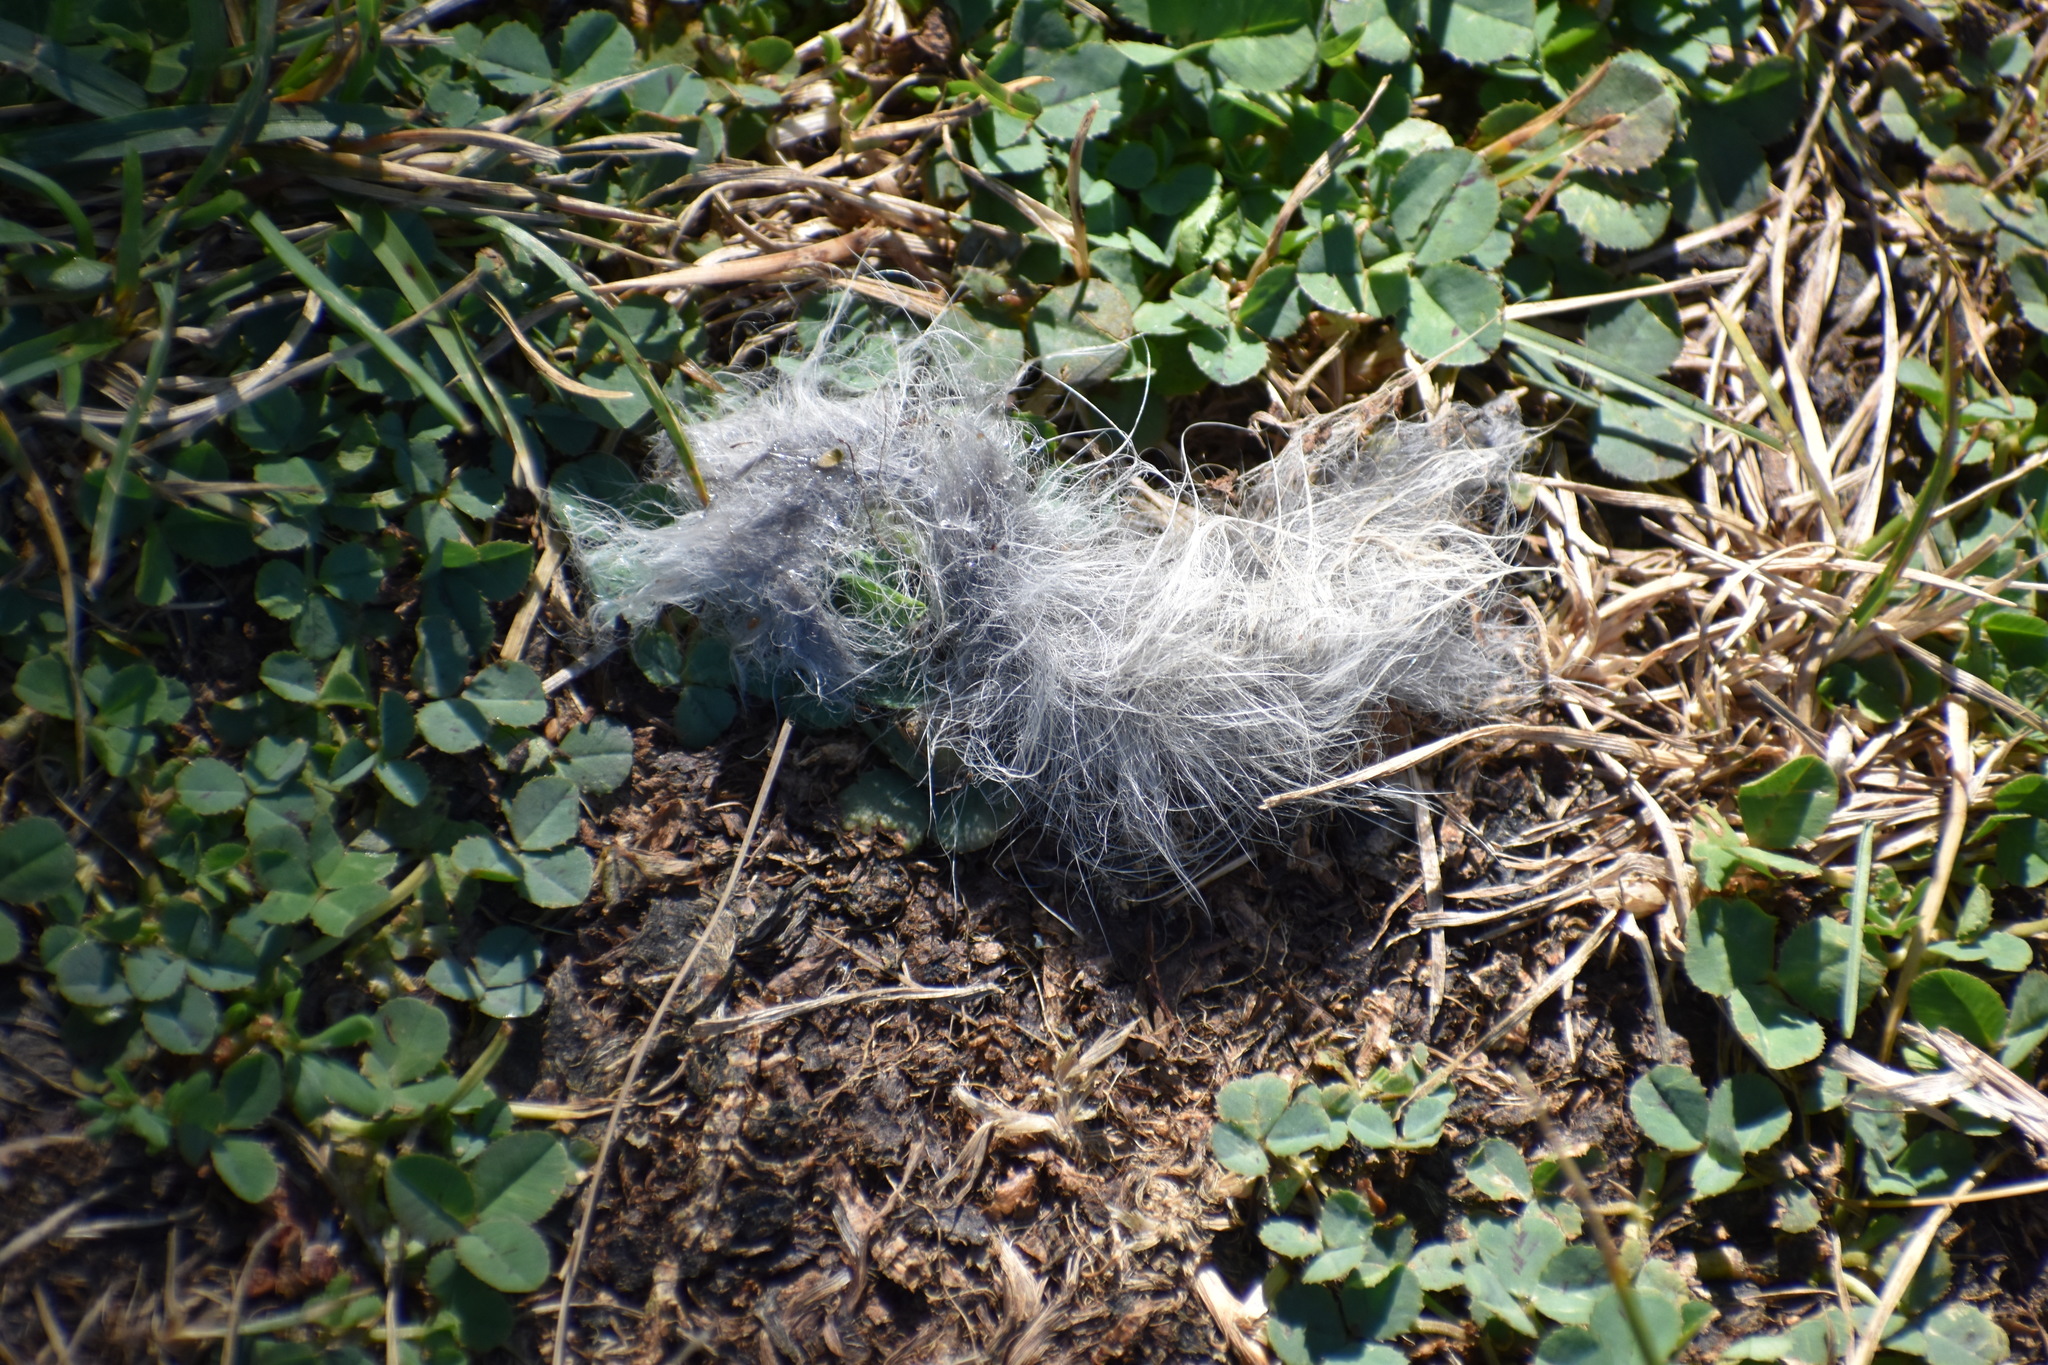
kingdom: Animalia
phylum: Chordata
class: Mammalia
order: Didelphimorphia
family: Didelphidae
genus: Didelphis
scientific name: Didelphis virginiana
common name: Virginia opossum
